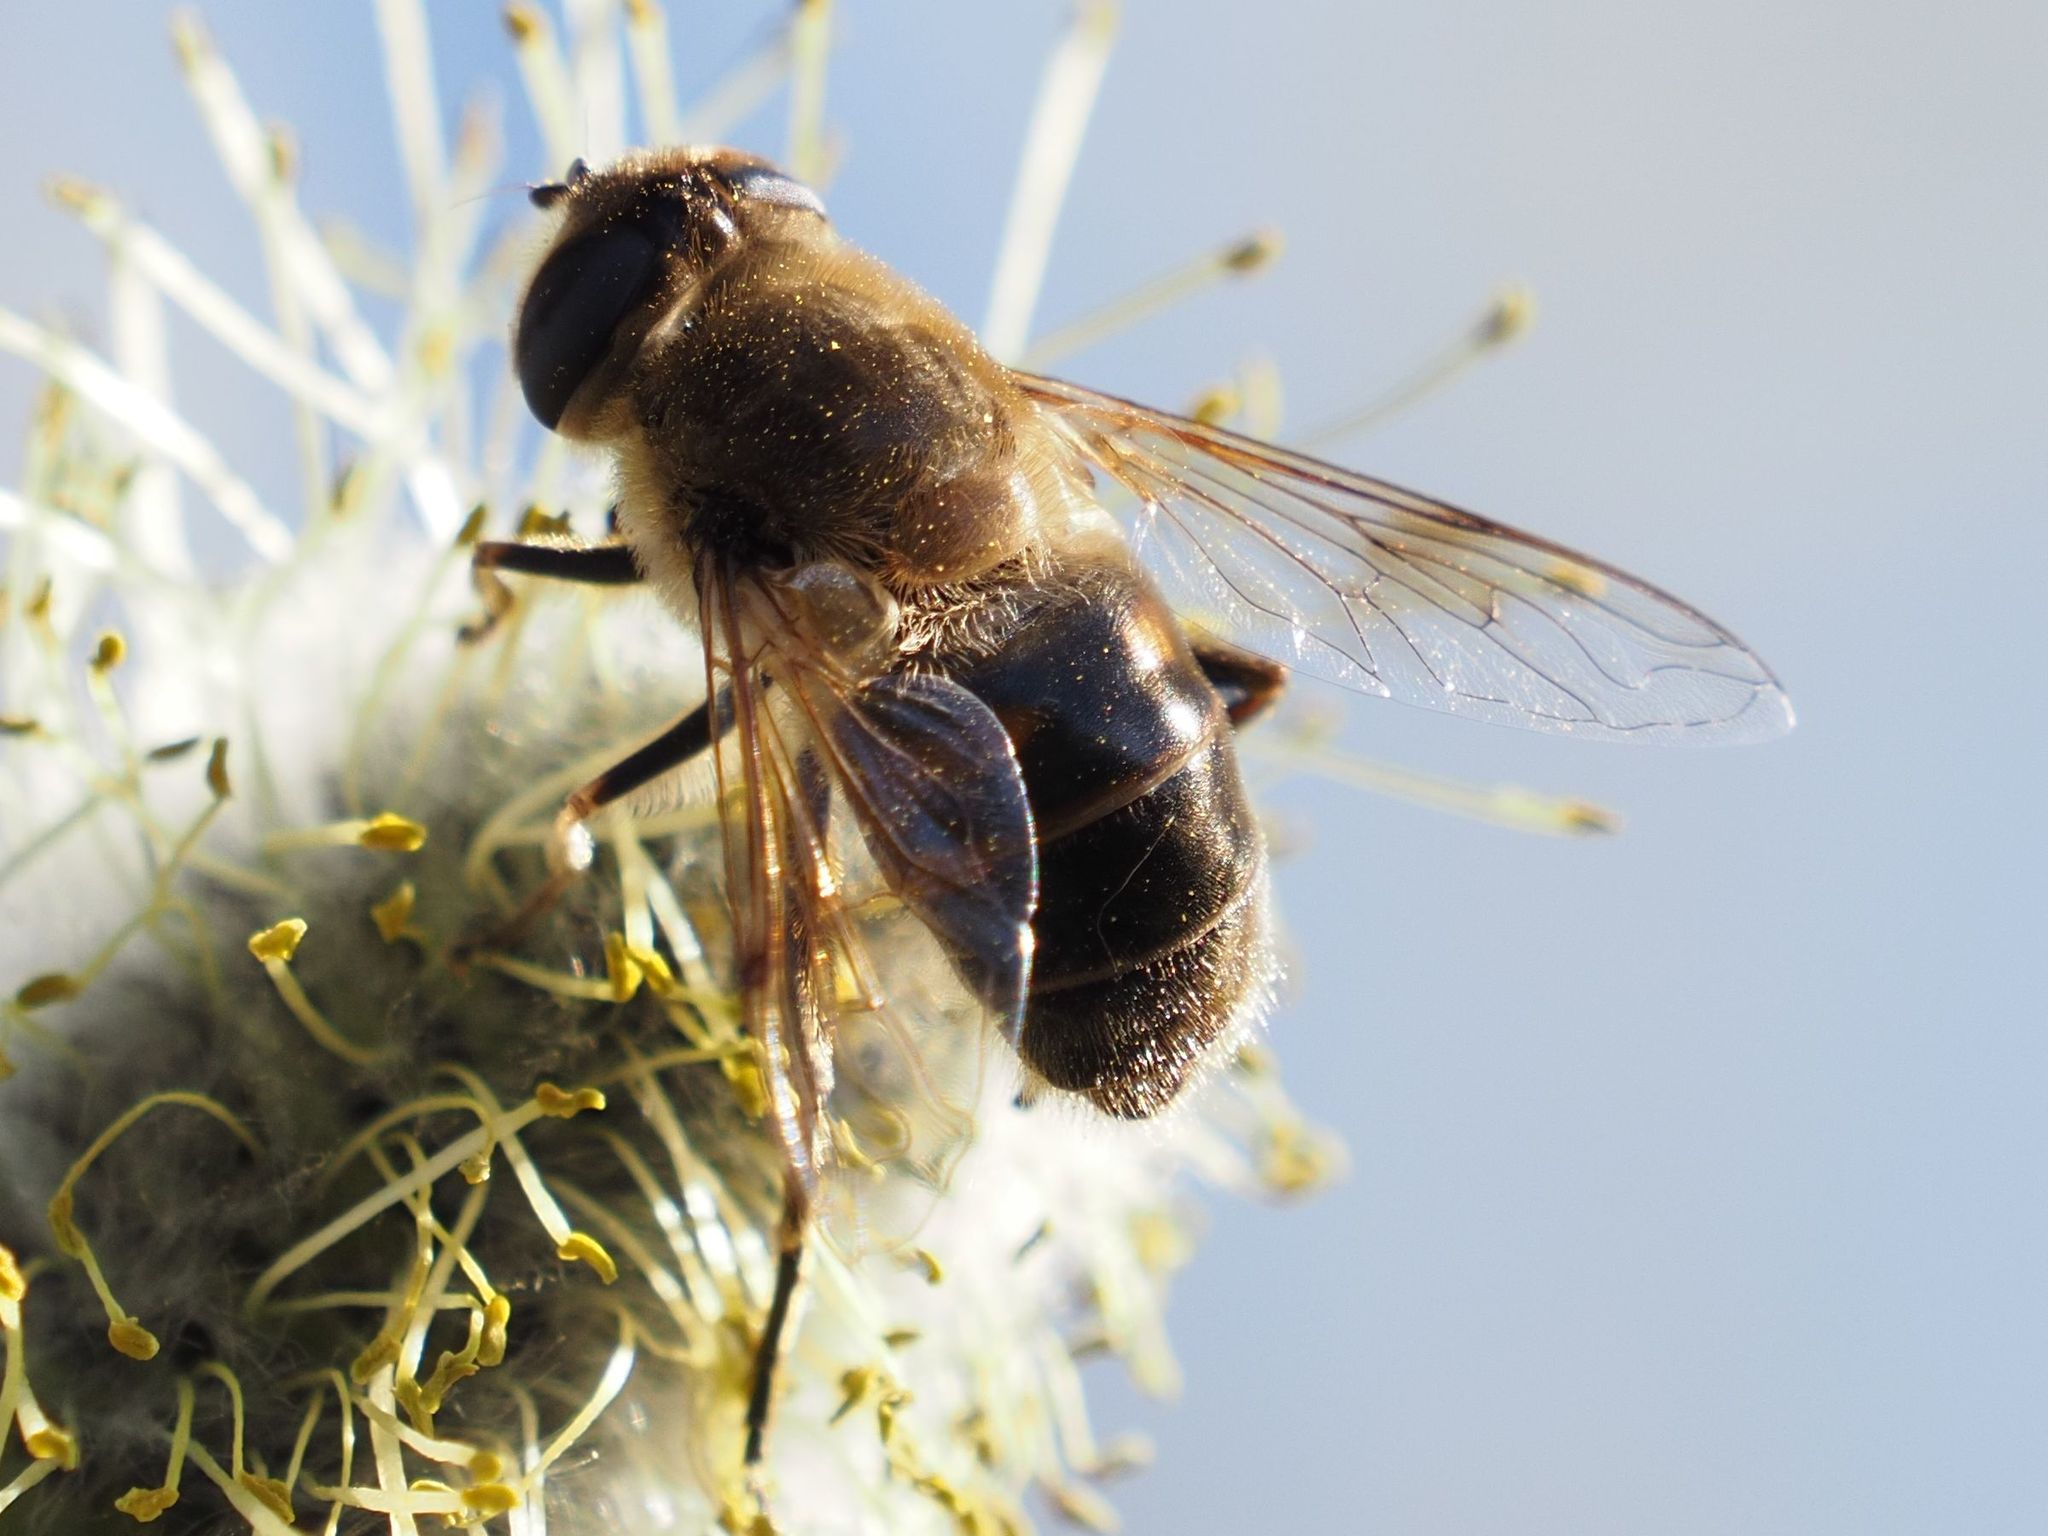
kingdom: Animalia
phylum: Arthropoda
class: Insecta
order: Diptera
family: Syrphidae
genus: Eristalis
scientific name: Eristalis tenax
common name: Drone fly
